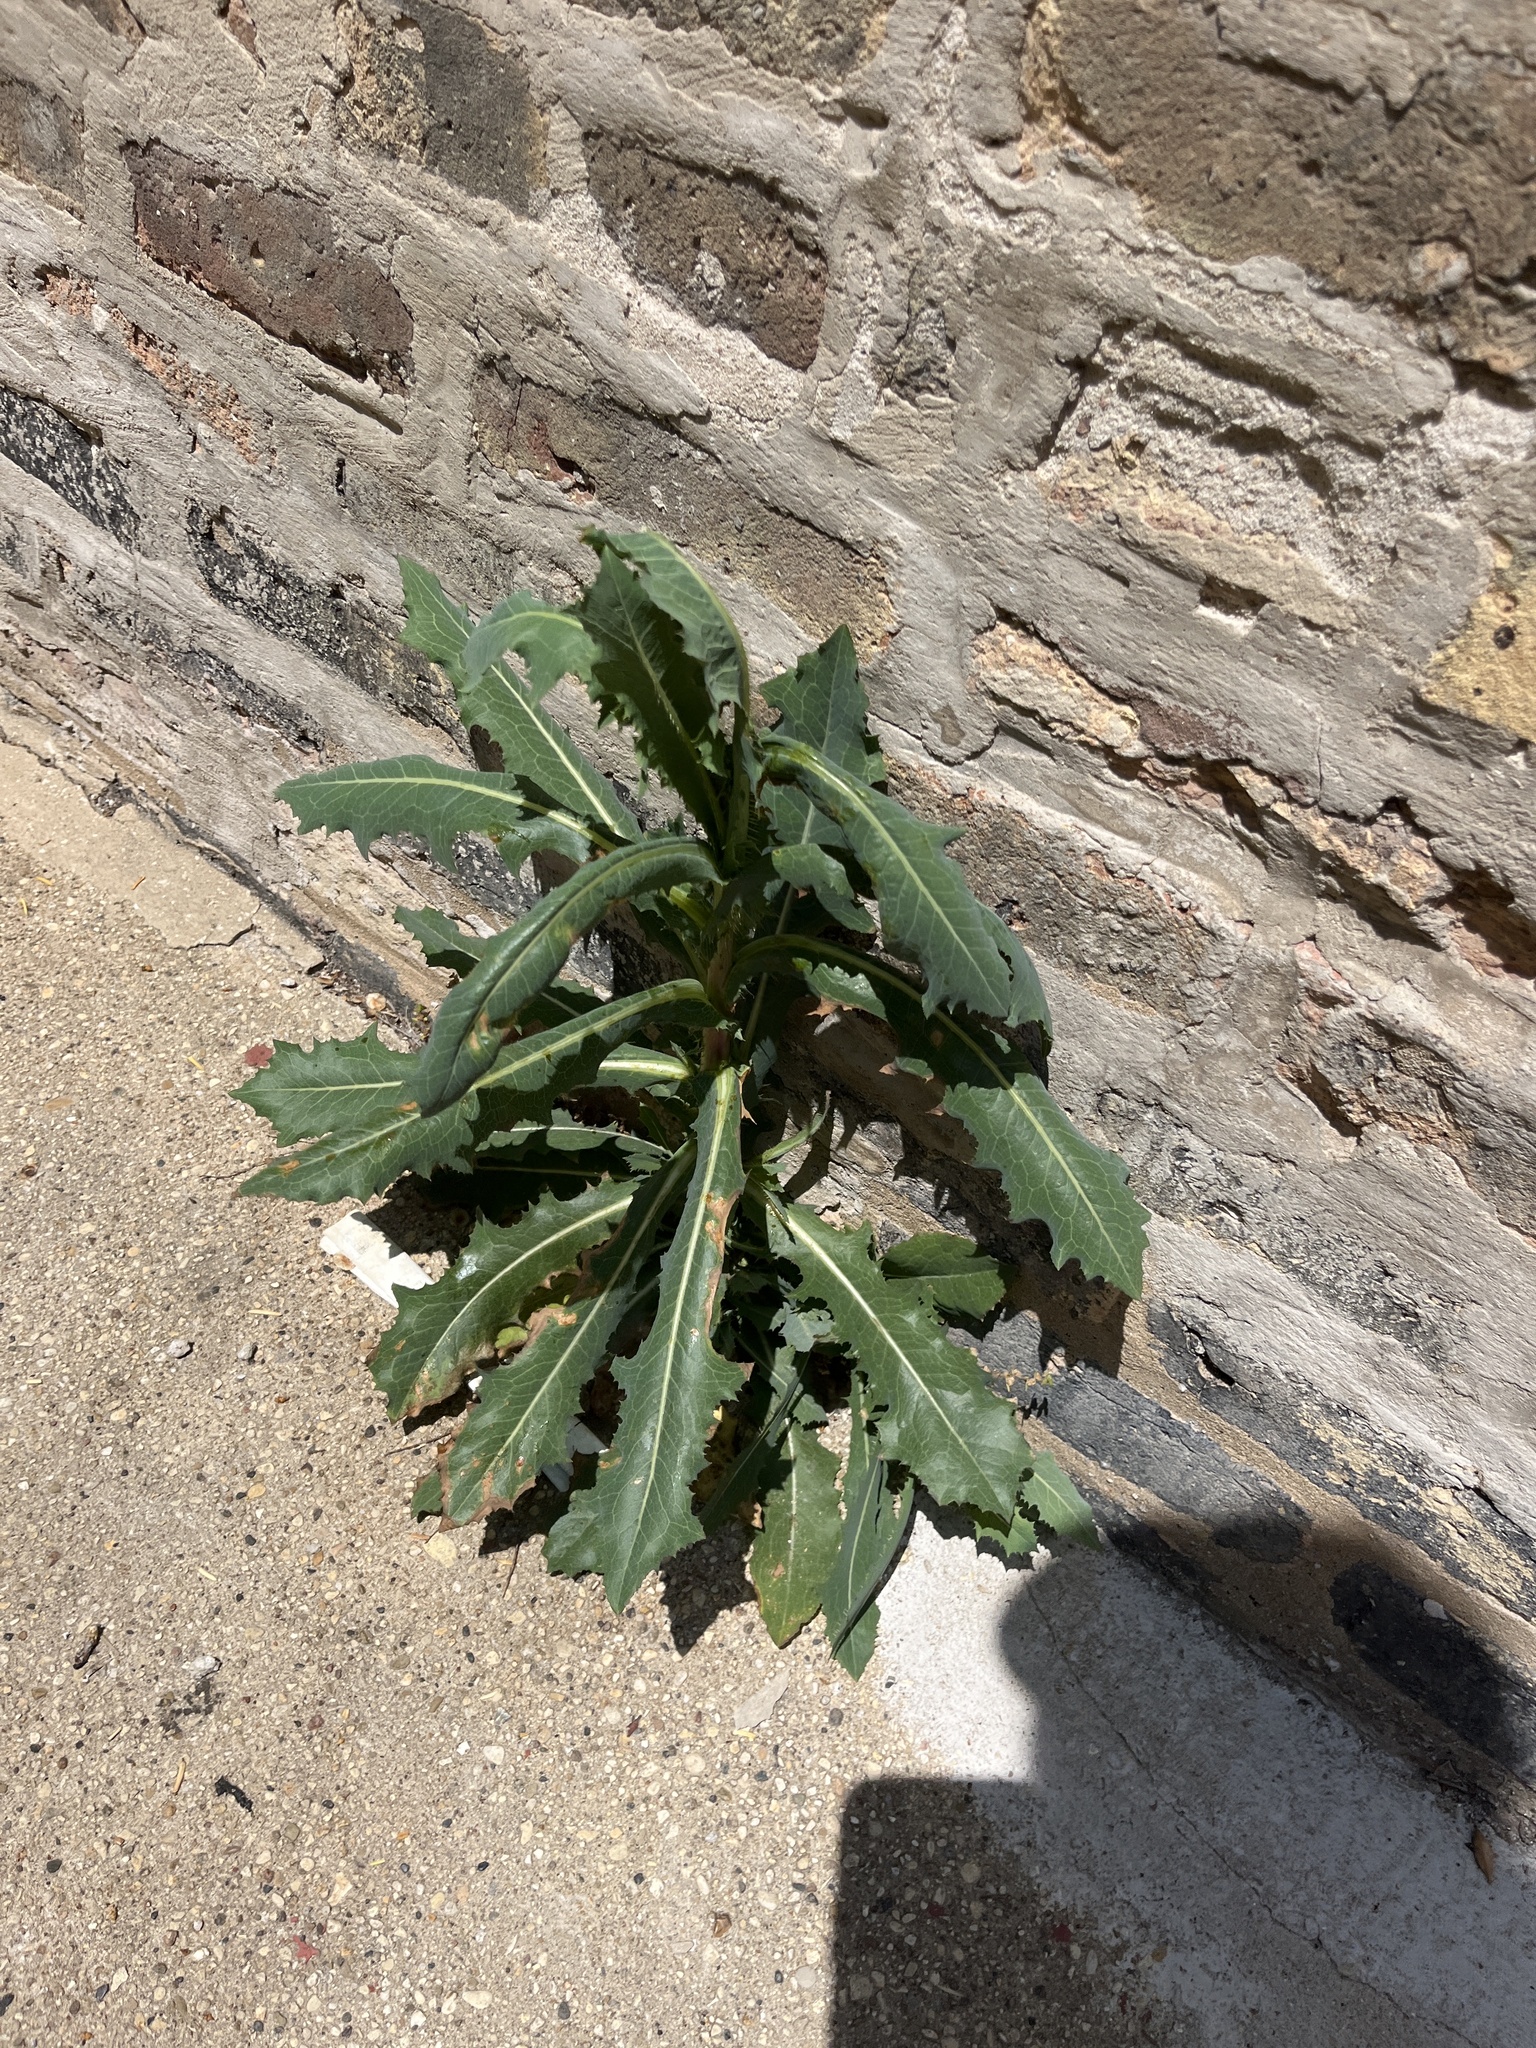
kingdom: Plantae
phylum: Tracheophyta
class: Magnoliopsida
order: Asterales
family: Asteraceae
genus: Lactuca
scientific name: Lactuca serriola
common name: Prickly lettuce
